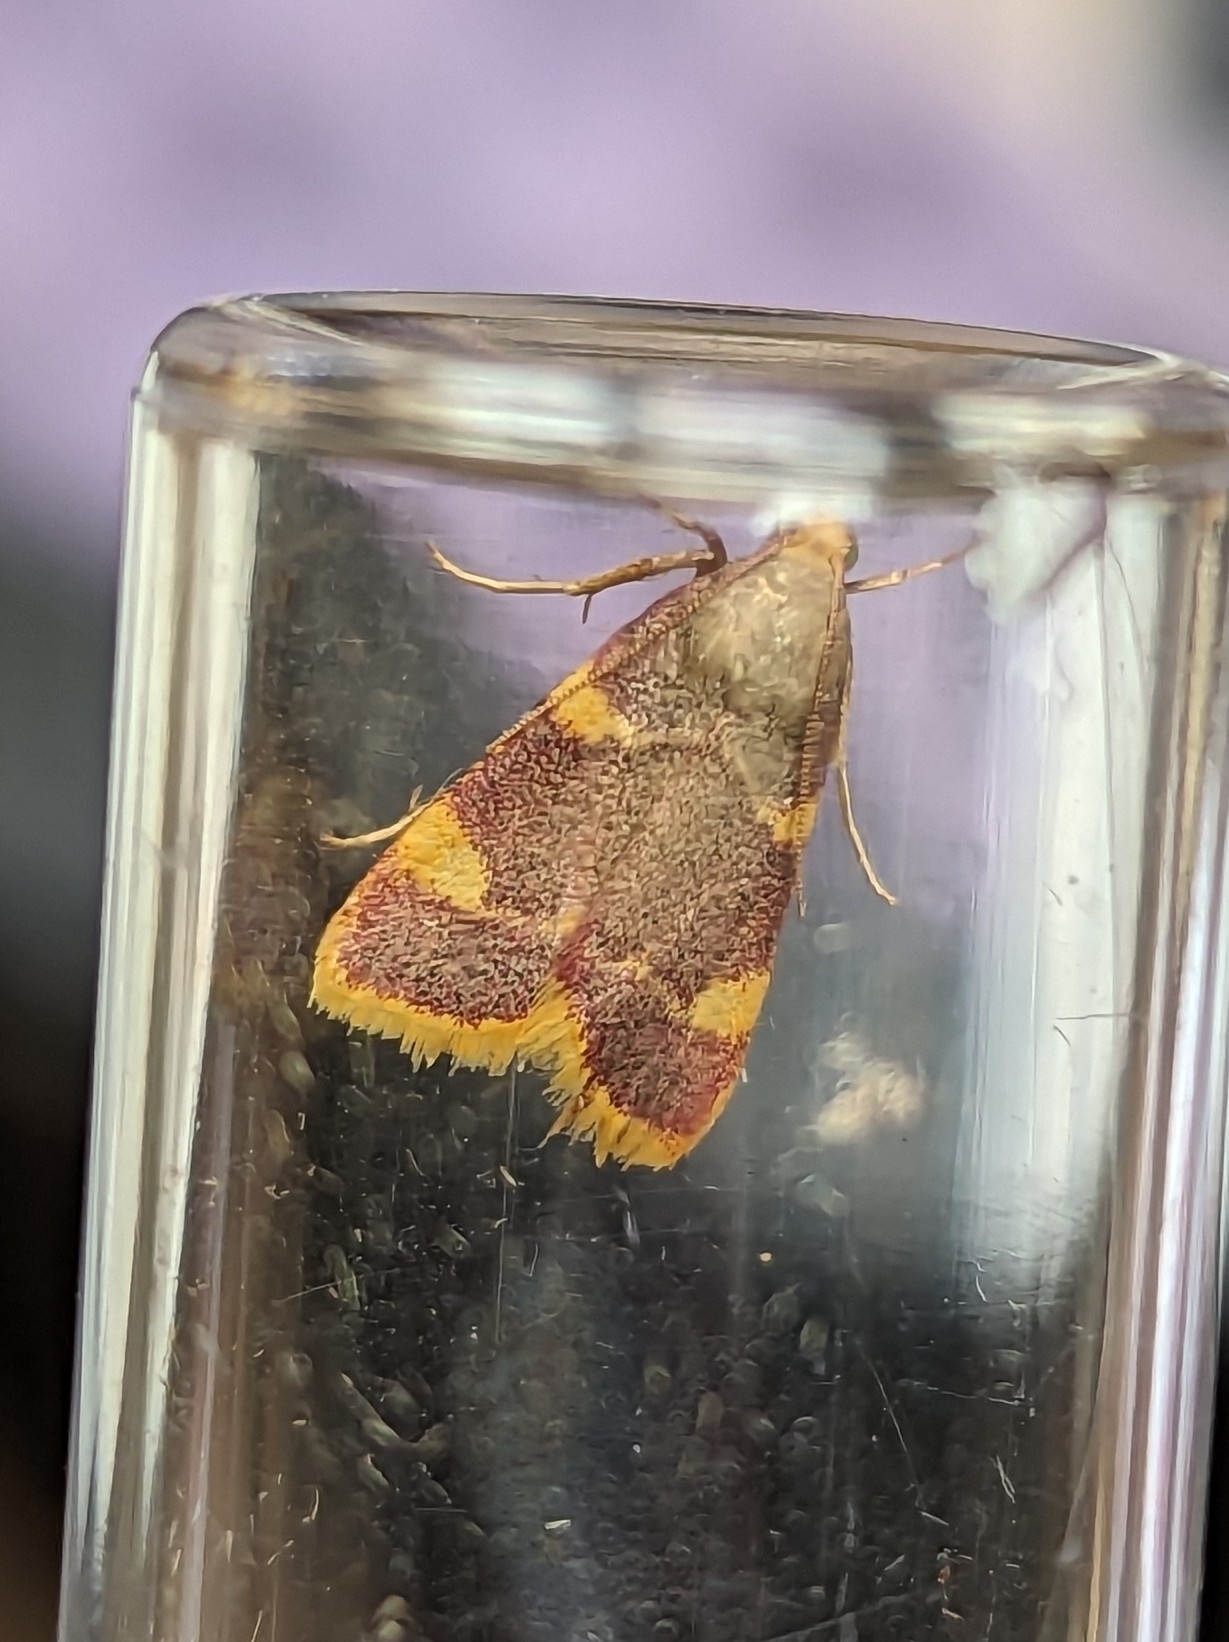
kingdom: Animalia
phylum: Arthropoda
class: Insecta
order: Lepidoptera
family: Pyralidae
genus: Hypsopygia
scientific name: Hypsopygia costalis
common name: Gold triangle
